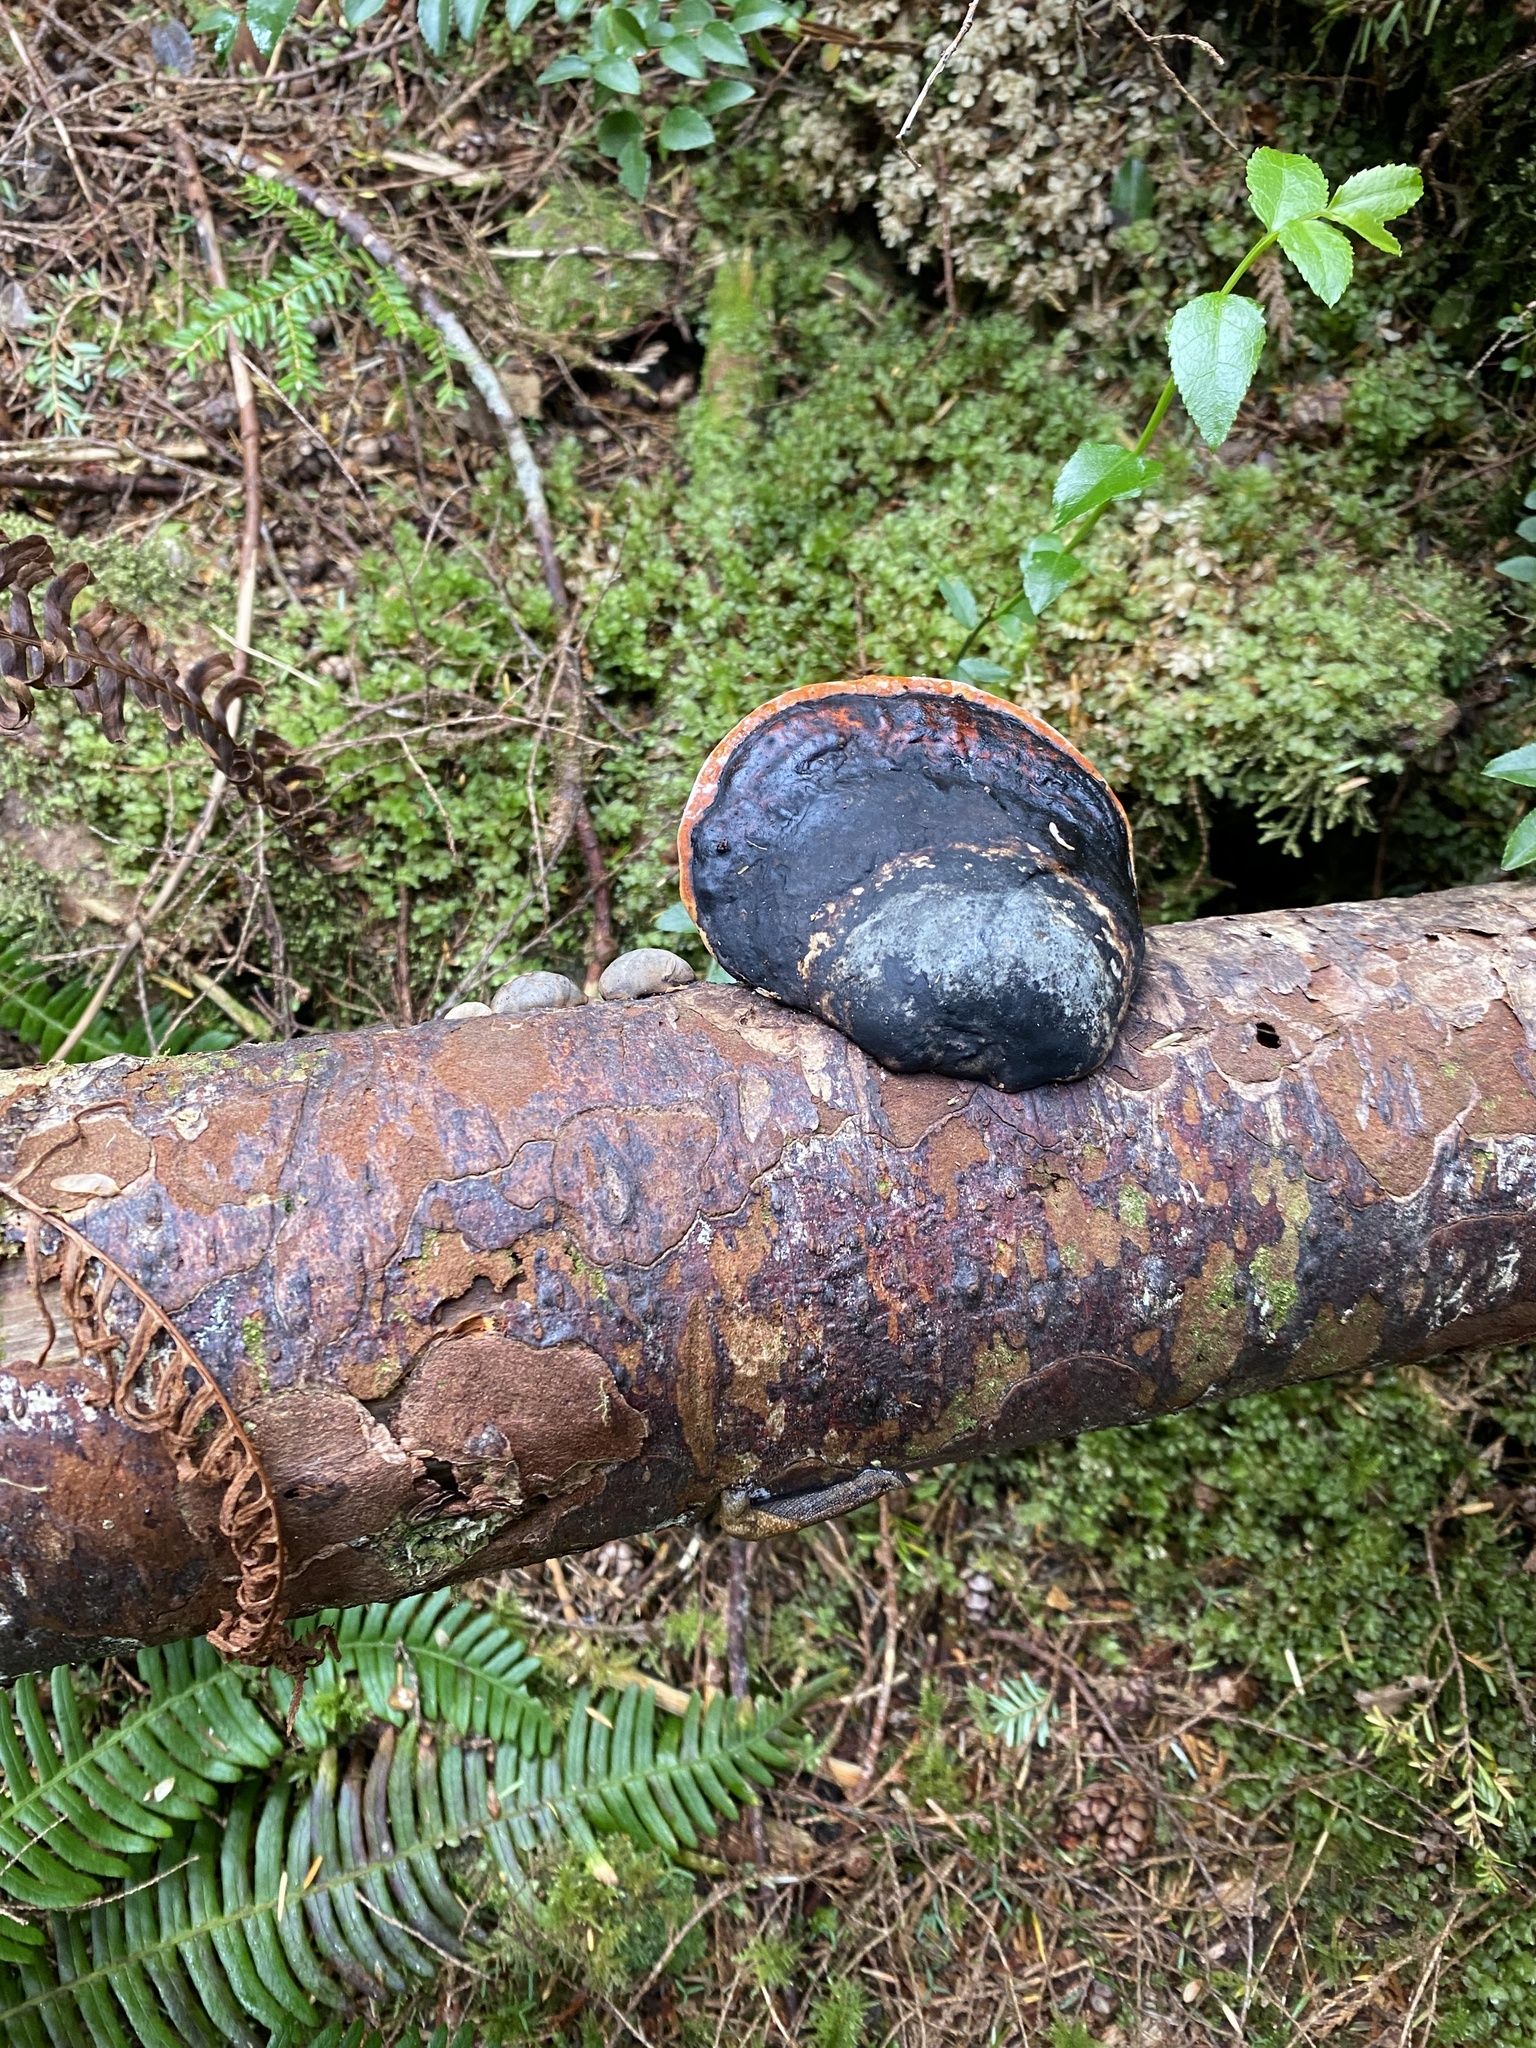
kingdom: Fungi
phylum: Basidiomycota
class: Agaricomycetes
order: Polyporales
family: Fomitopsidaceae
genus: Fomitopsis
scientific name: Fomitopsis mounceae
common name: Northern red belt
